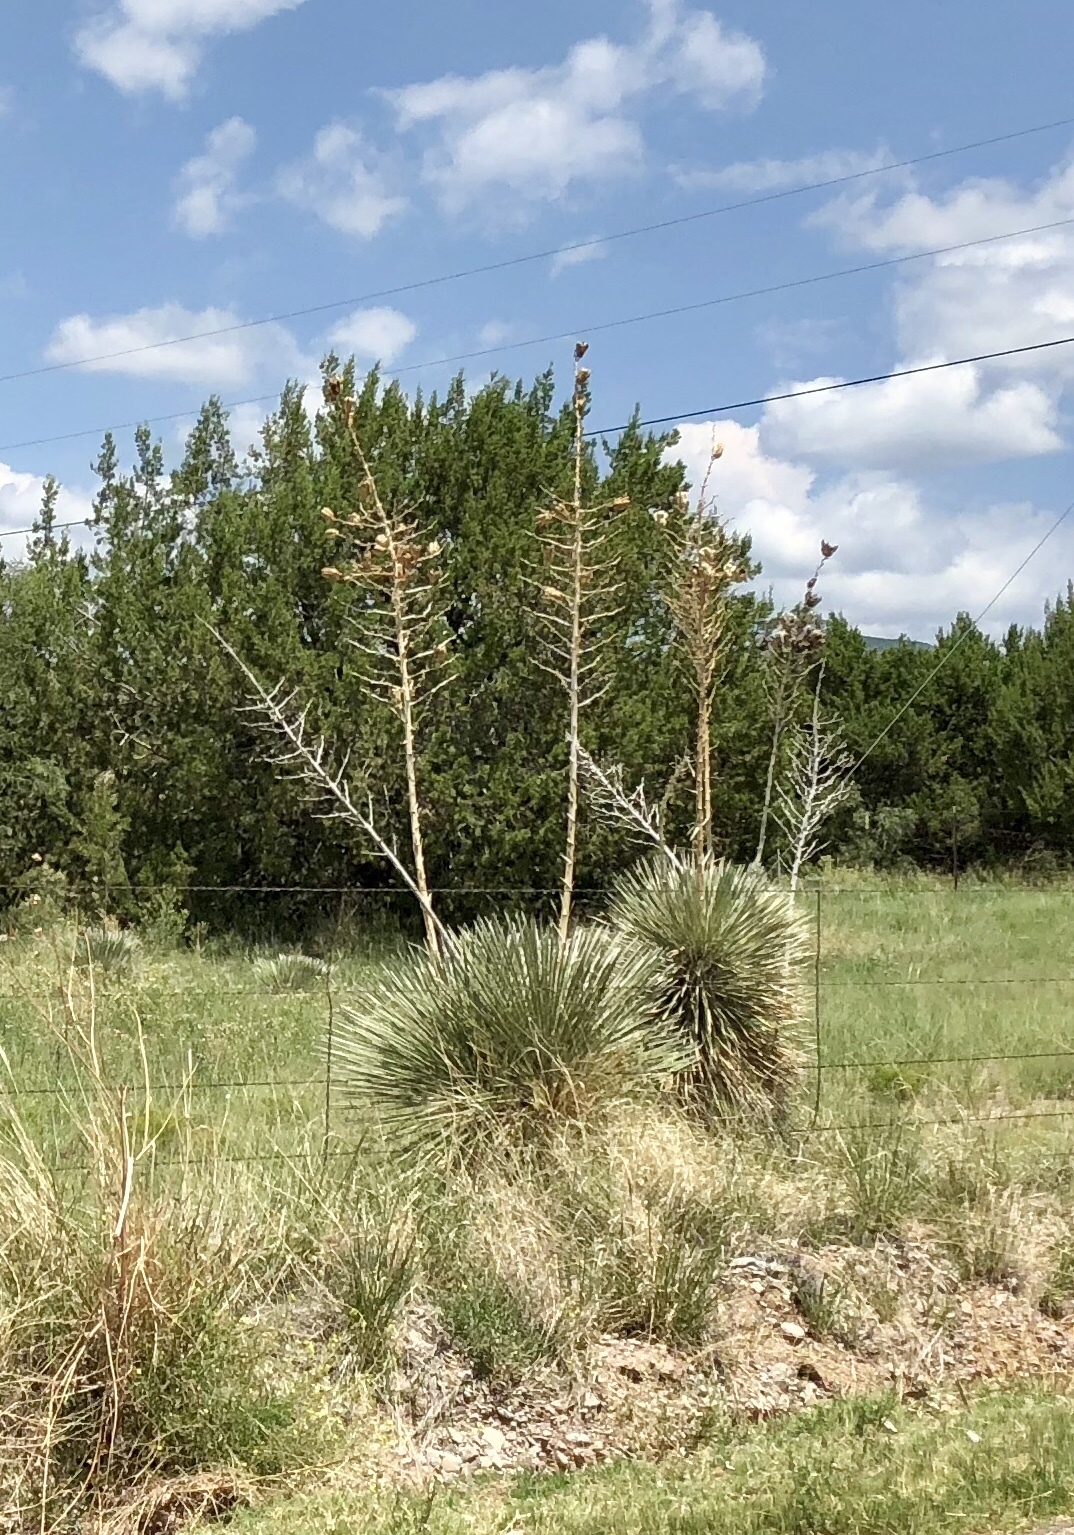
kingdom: Plantae
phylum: Tracheophyta
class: Liliopsida
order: Asparagales
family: Asparagaceae
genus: Yucca
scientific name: Yucca elata
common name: Palmella
